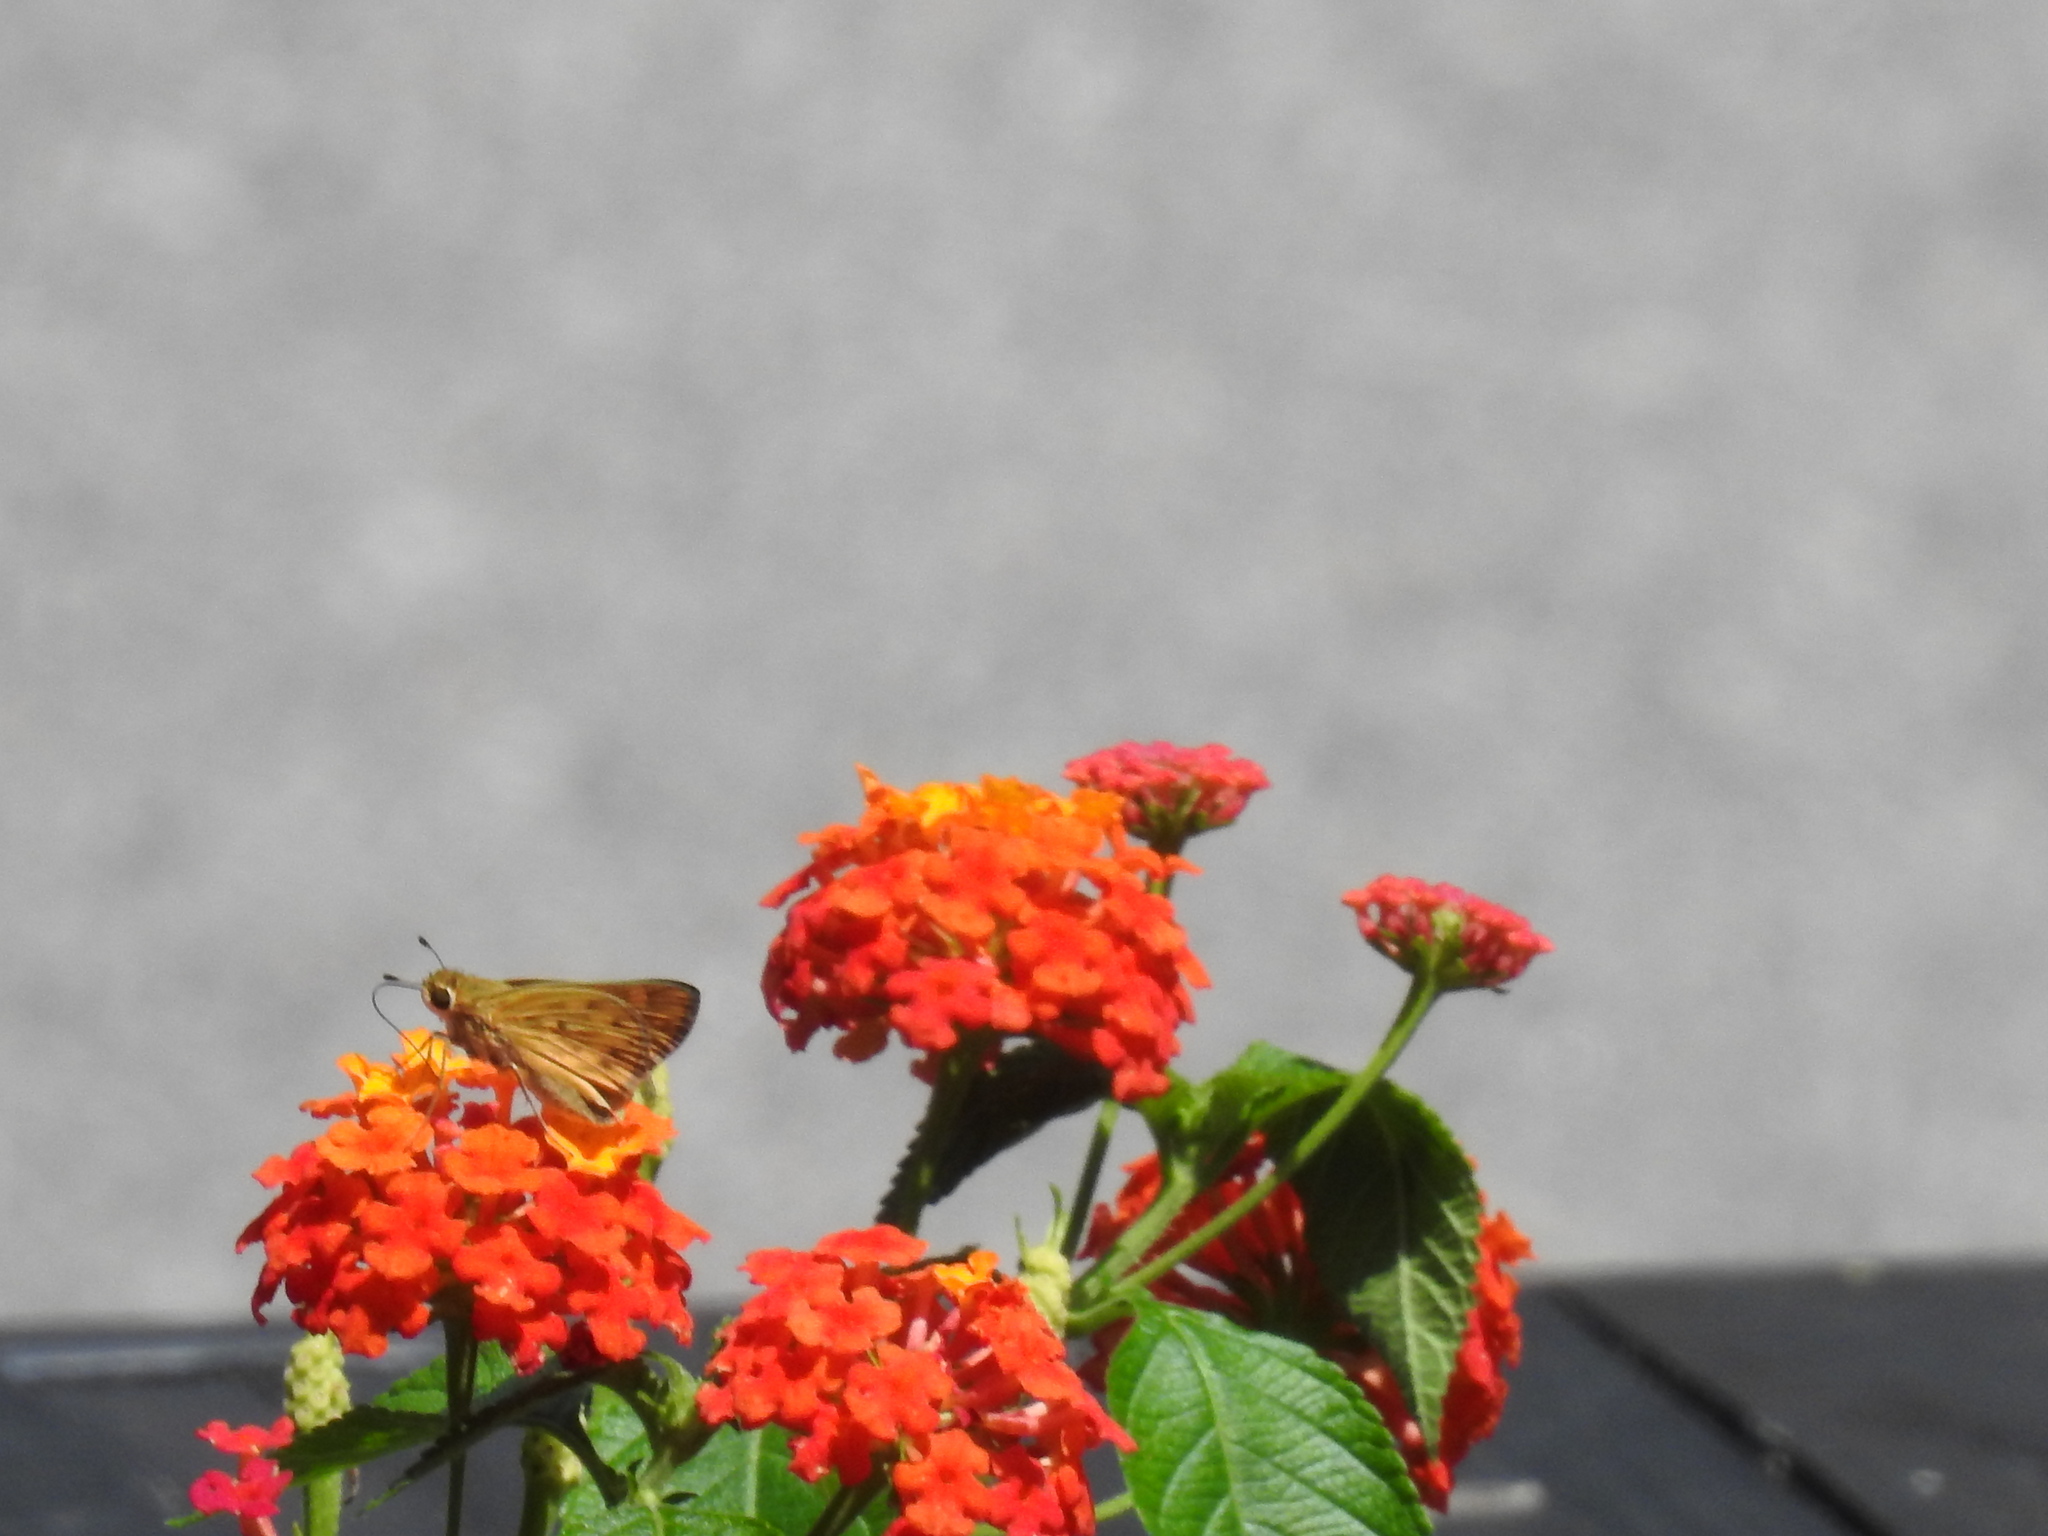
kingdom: Animalia
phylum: Arthropoda
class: Insecta
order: Lepidoptera
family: Hesperiidae
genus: Hylephila
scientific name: Hylephila phyleus
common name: Fiery skipper
